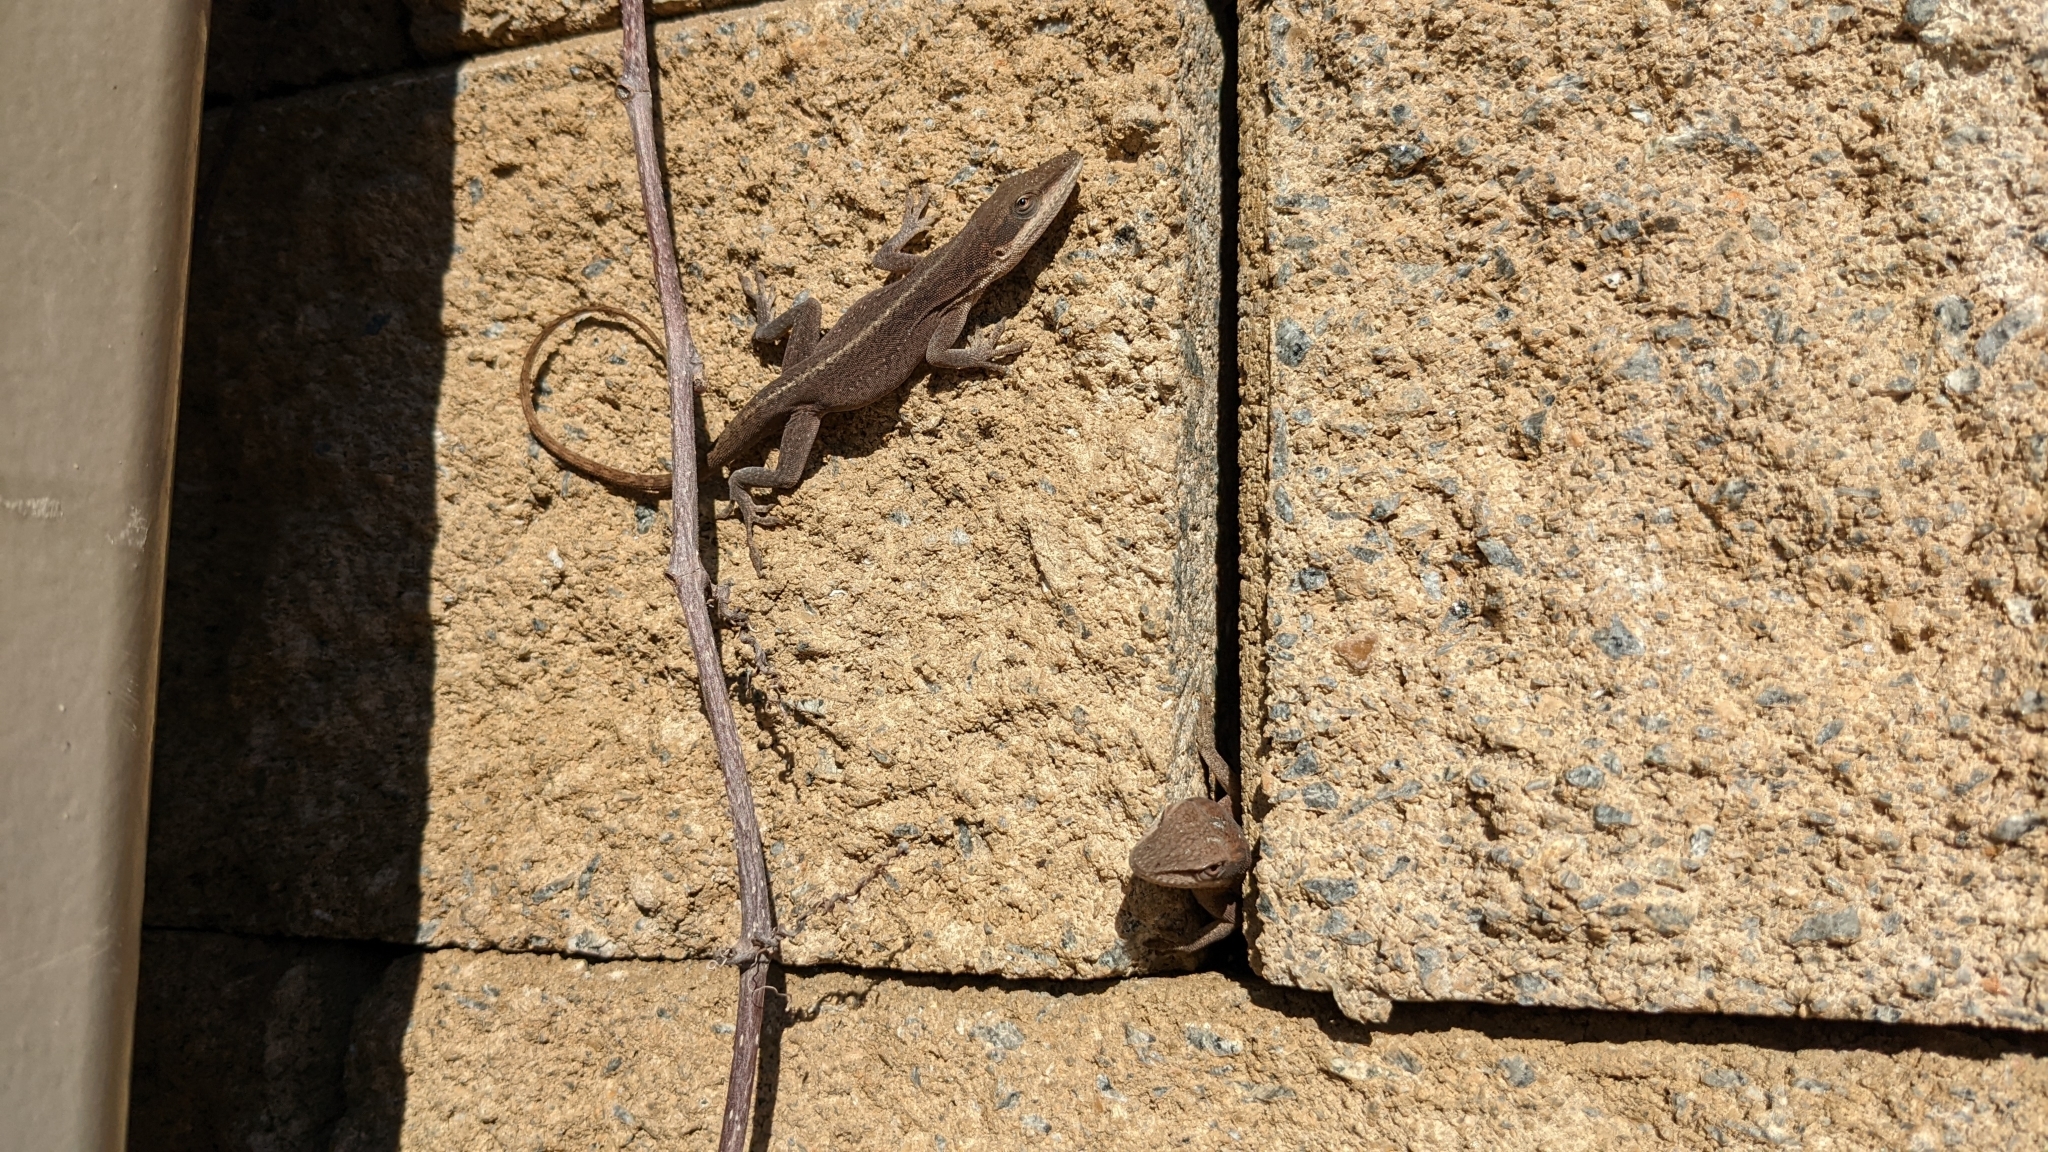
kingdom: Animalia
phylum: Chordata
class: Squamata
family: Dactyloidae
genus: Anolis
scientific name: Anolis carolinensis
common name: Green anole
